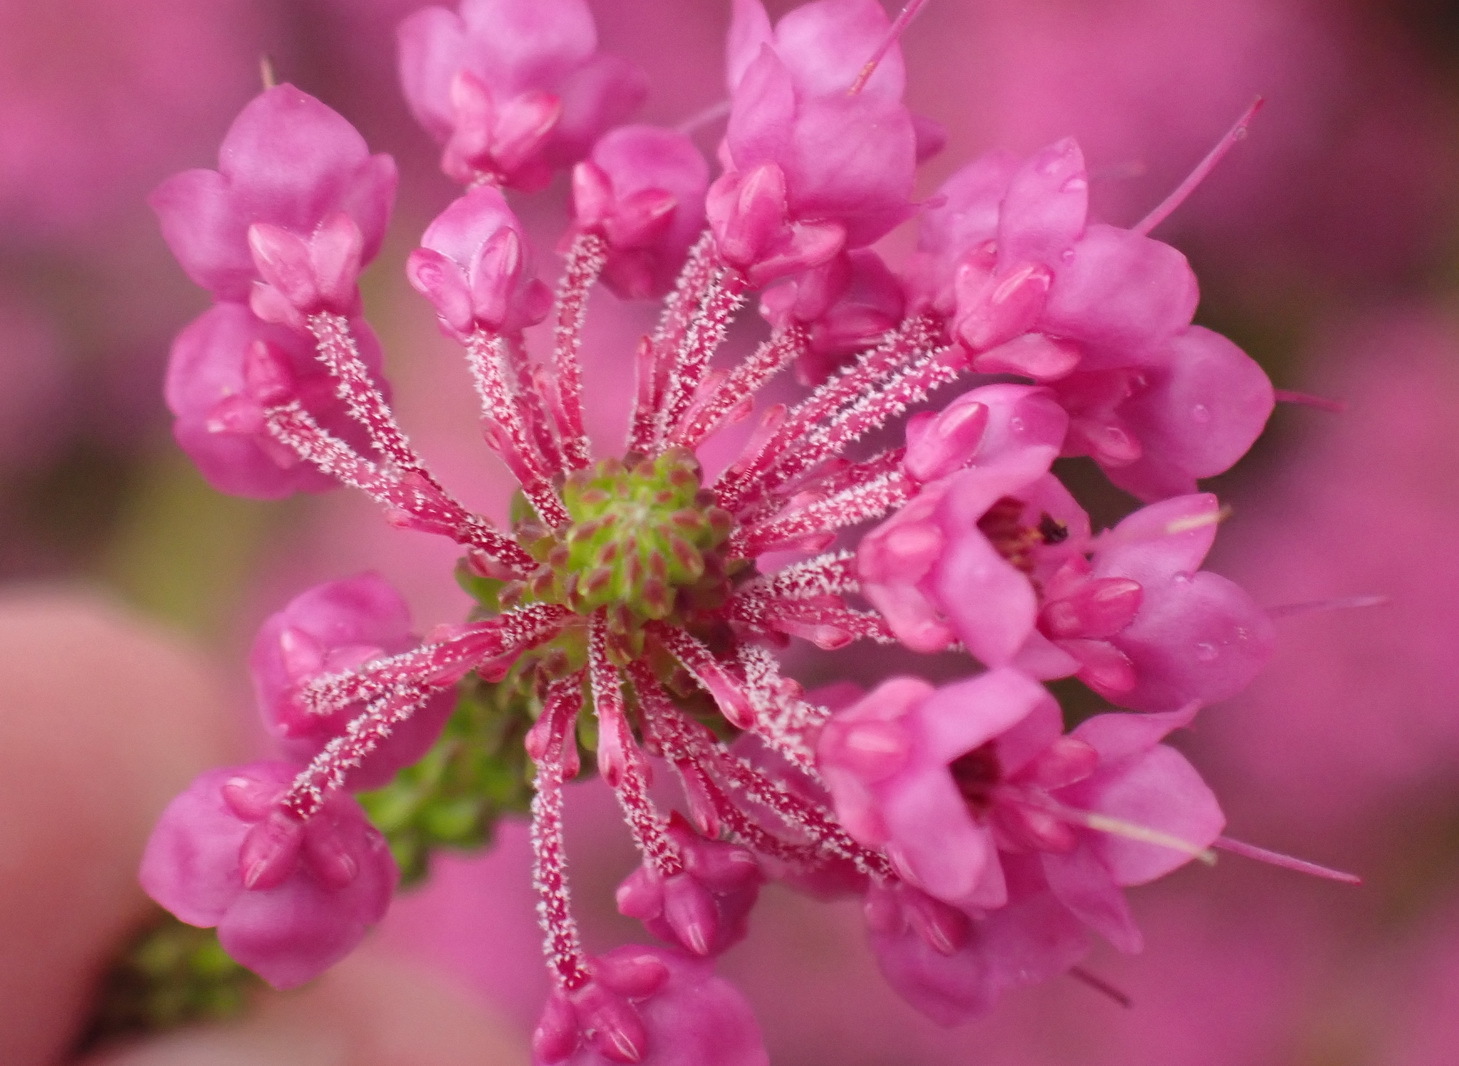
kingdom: Plantae
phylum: Tracheophyta
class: Magnoliopsida
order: Ericales
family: Ericaceae
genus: Erica
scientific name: Erica seriphiifolia
